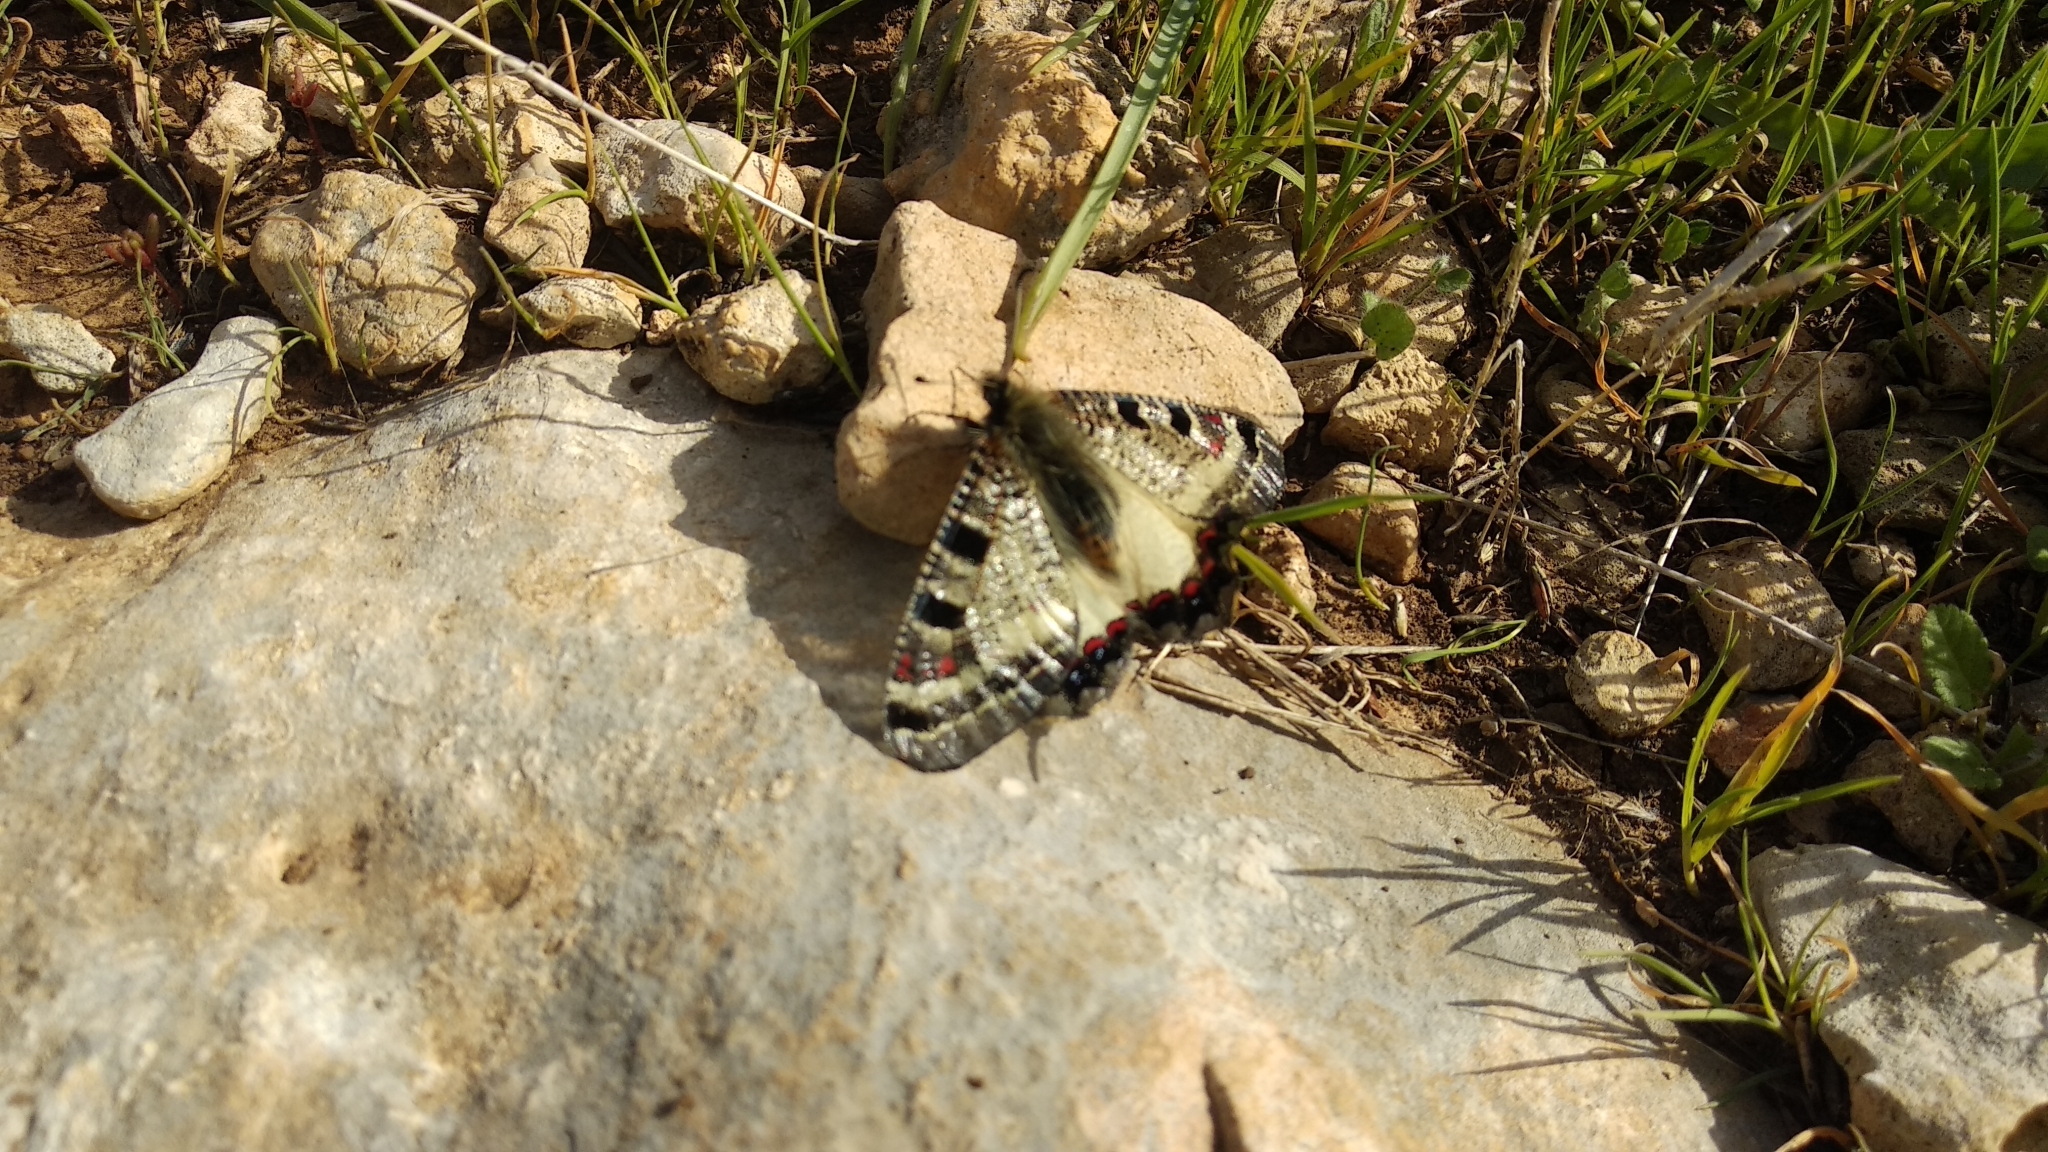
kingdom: Animalia
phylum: Arthropoda
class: Insecta
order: Lepidoptera
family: Papilionidae
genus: Archon
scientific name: Archon apollinus
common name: False apollo
